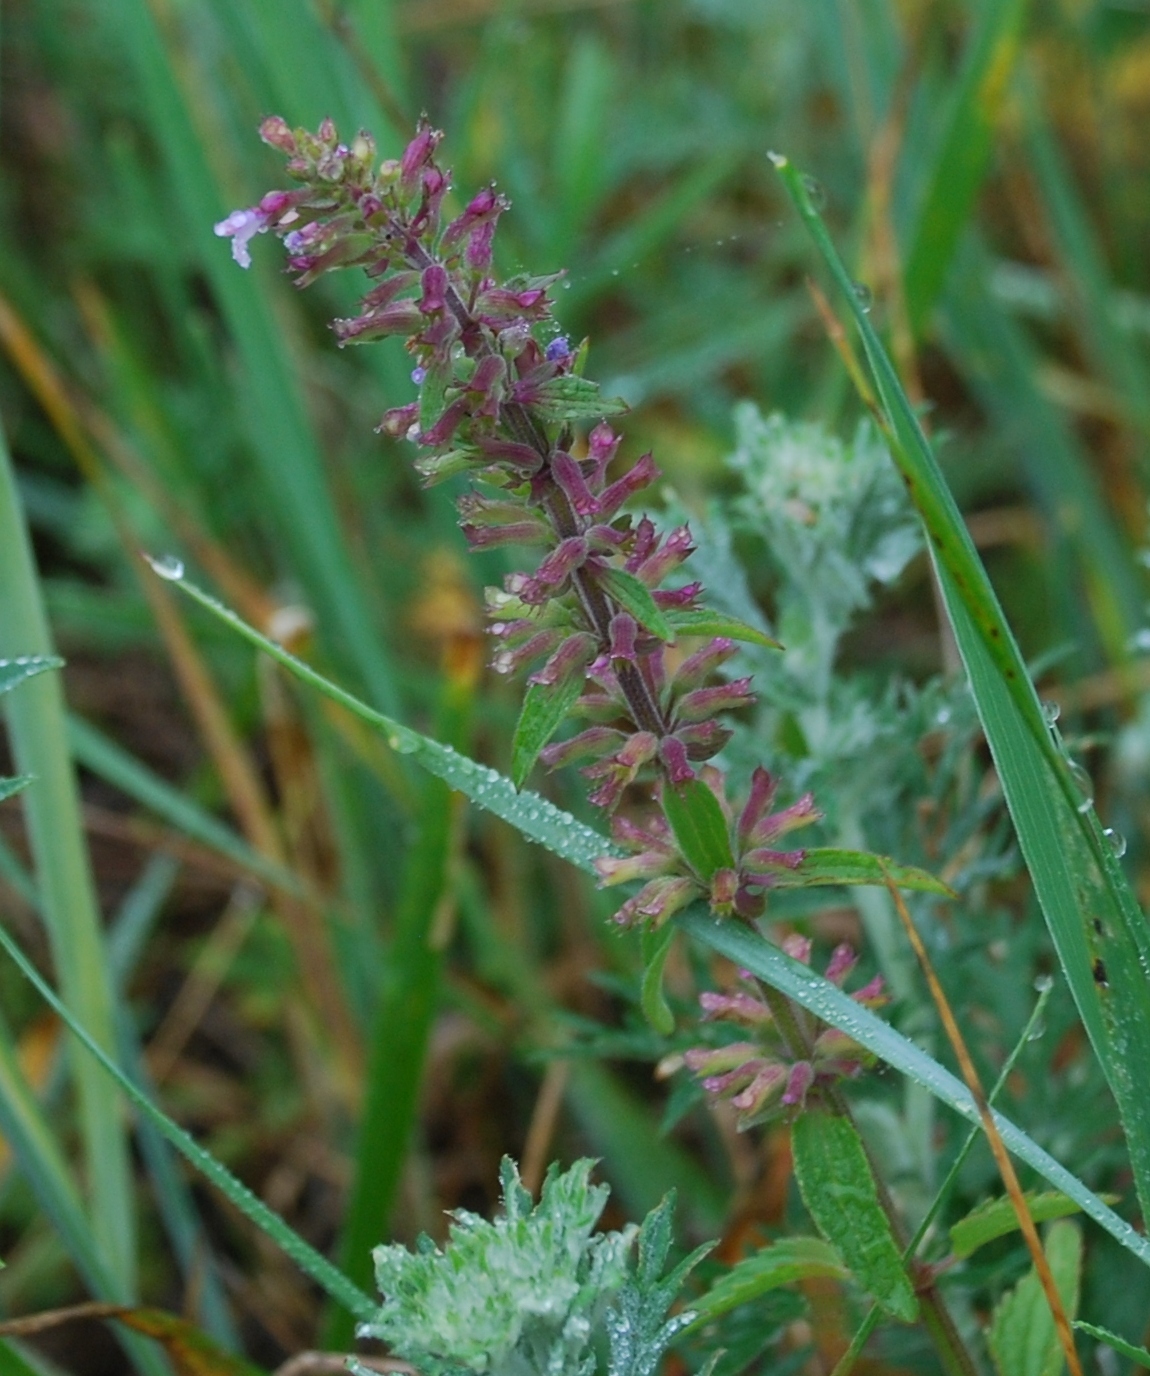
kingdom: Plantae
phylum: Tracheophyta
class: Magnoliopsida
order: Lamiales
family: Lamiaceae
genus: Dracocephalum
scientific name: Dracocephalum thymiflorum
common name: Thymeleaf dragonhead
